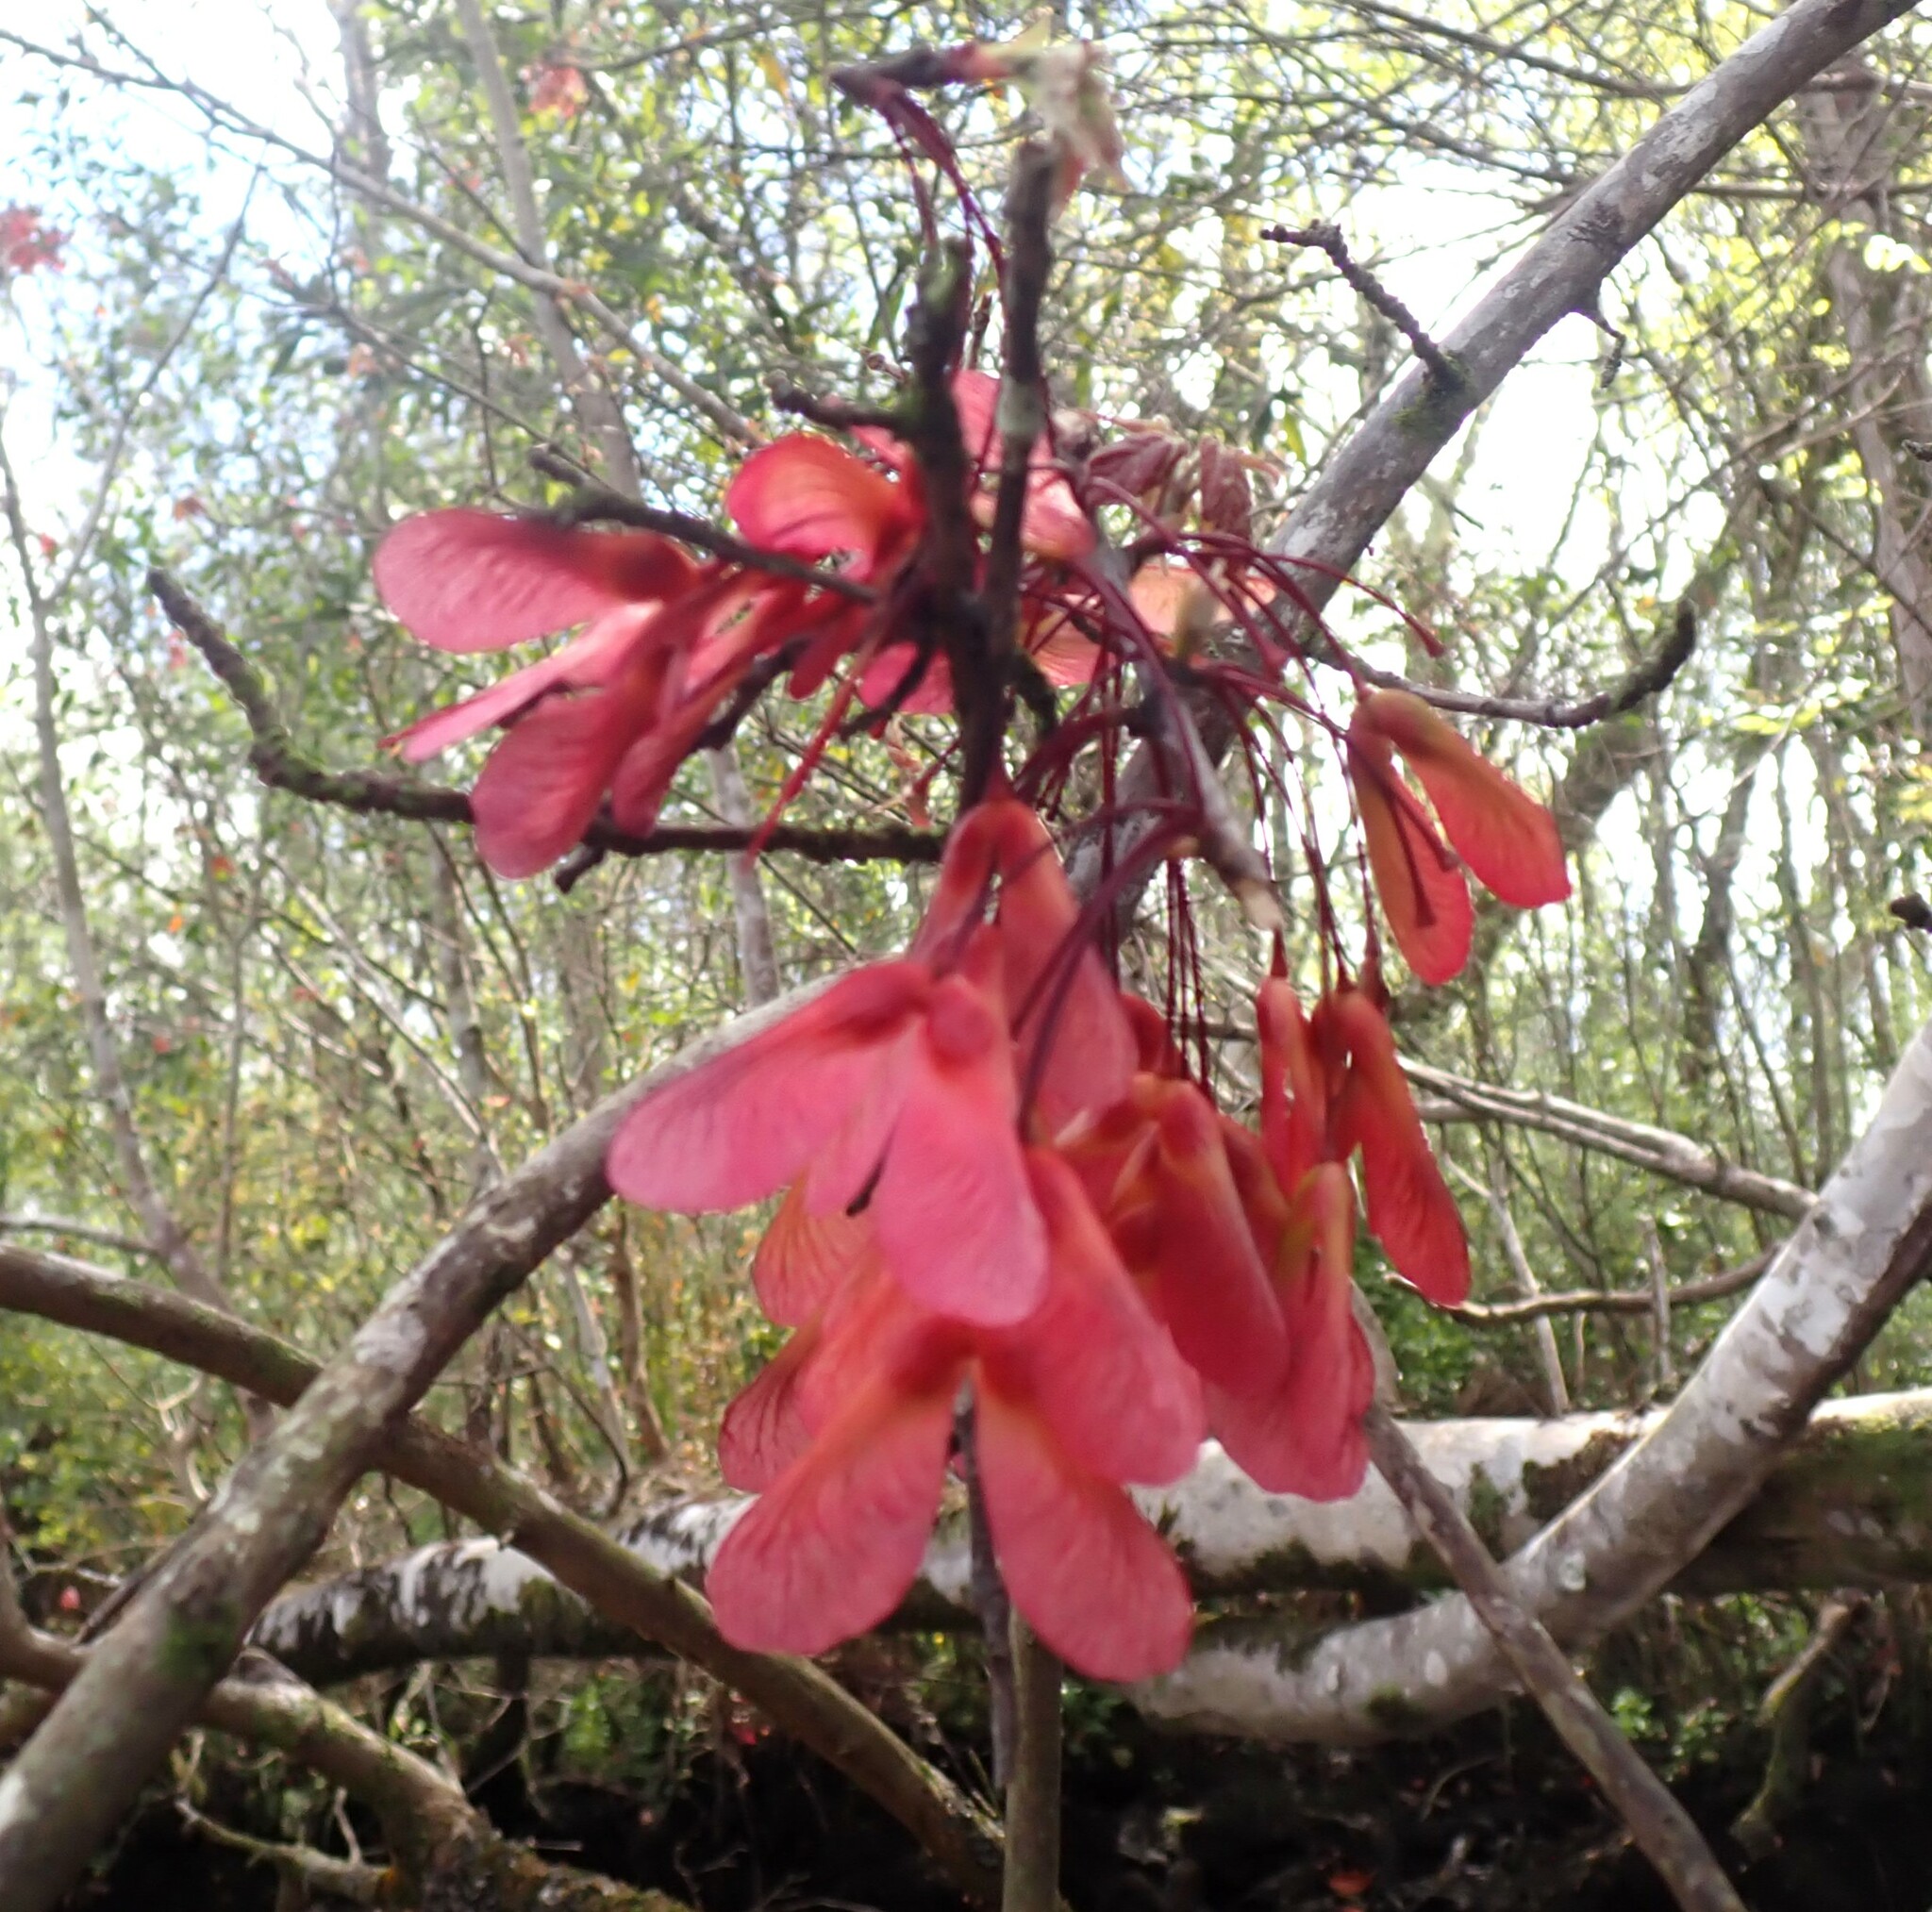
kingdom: Plantae
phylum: Tracheophyta
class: Magnoliopsida
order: Sapindales
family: Sapindaceae
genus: Acer
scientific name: Acer rubrum
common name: Red maple
